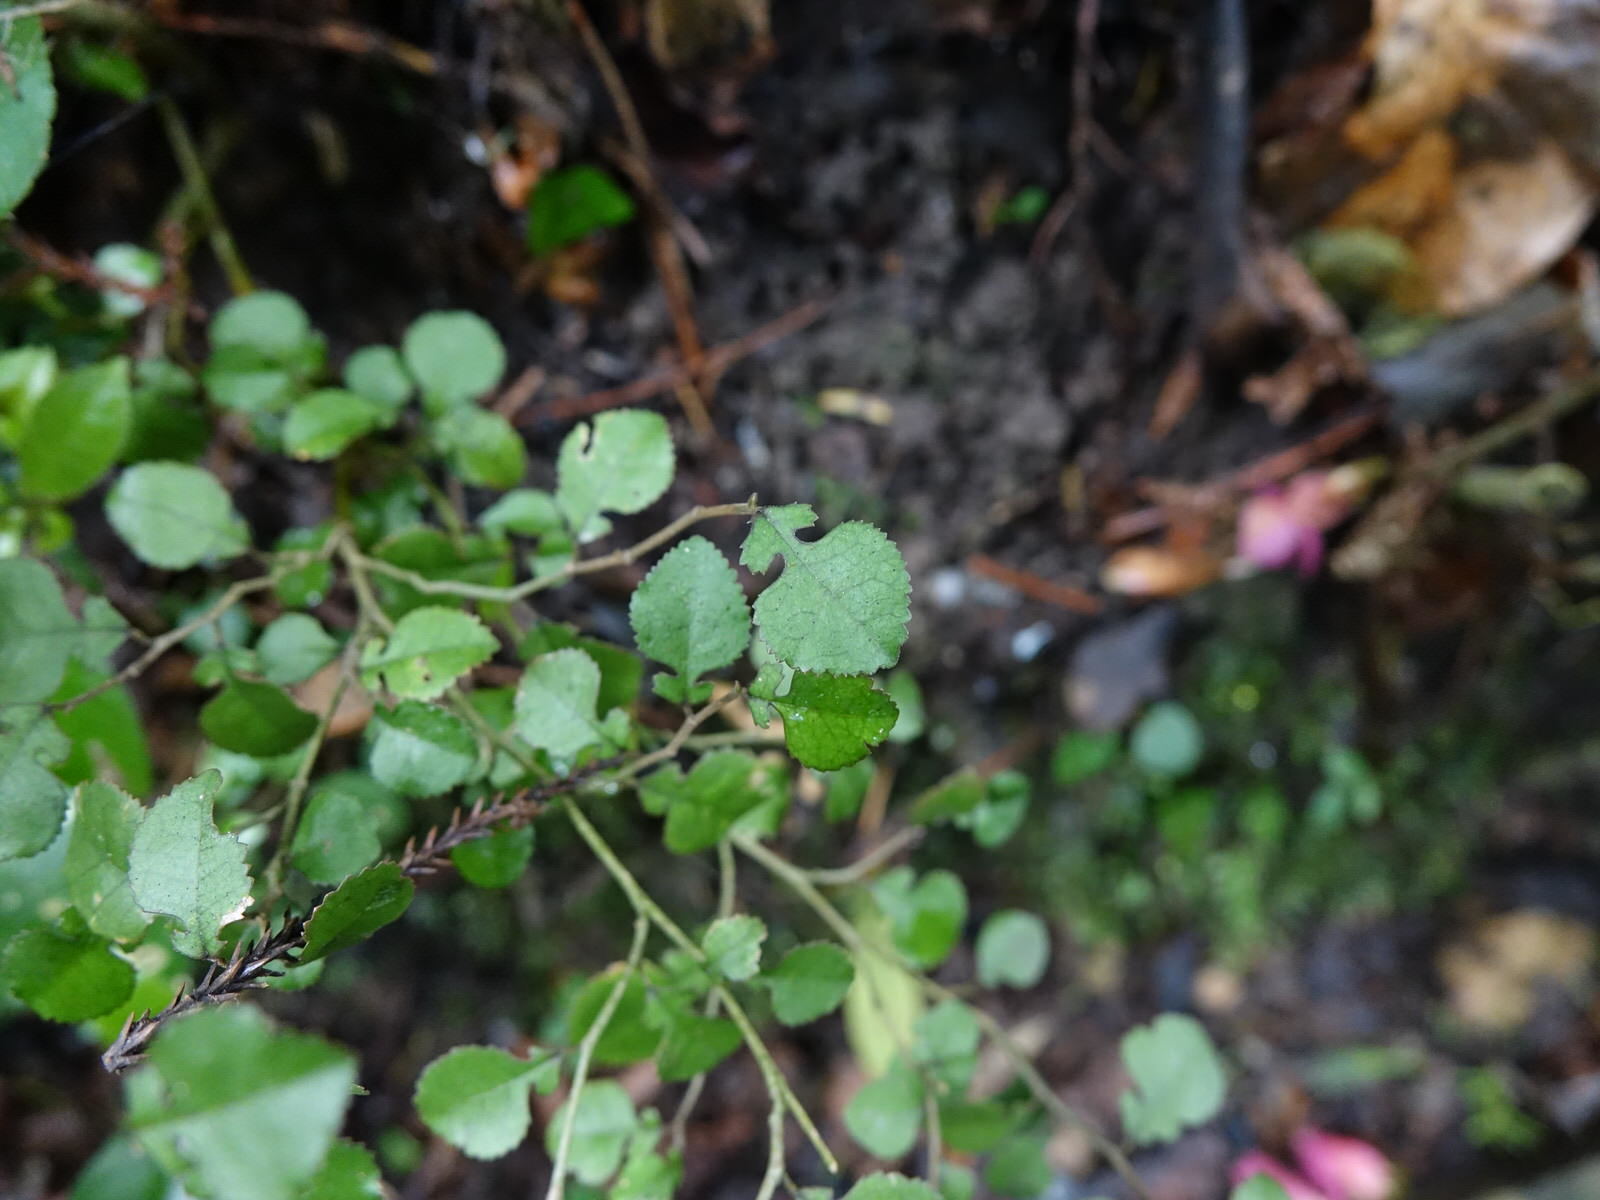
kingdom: Plantae
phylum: Tracheophyta
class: Magnoliopsida
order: Rosales
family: Moraceae
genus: Paratrophis
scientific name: Paratrophis microphylla
